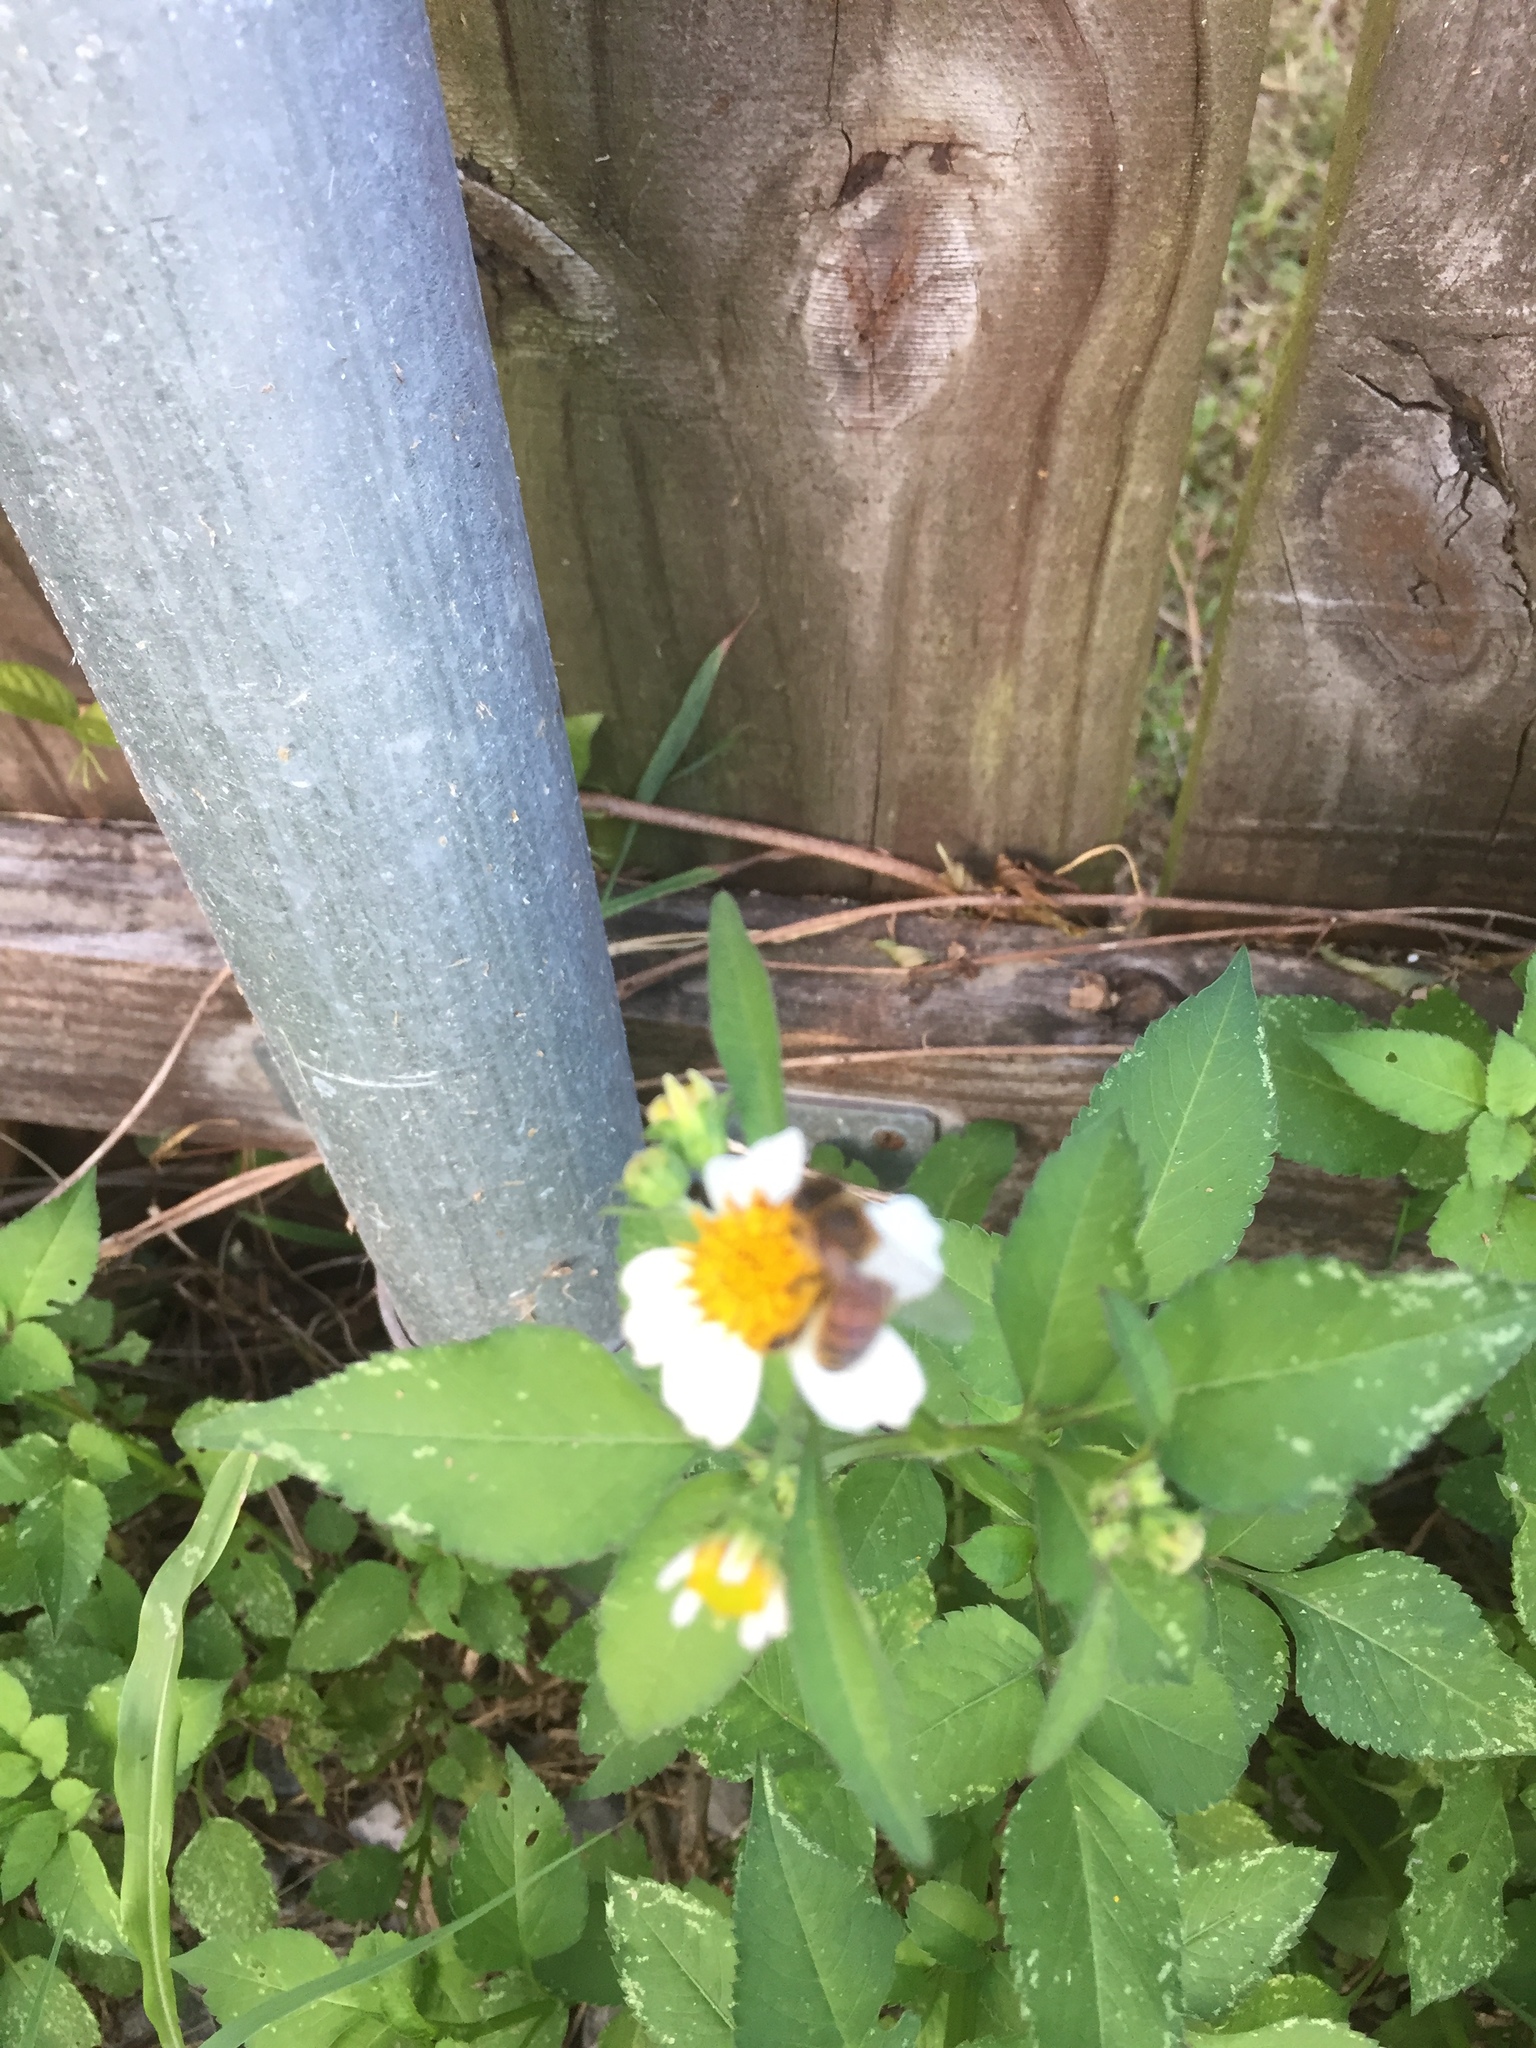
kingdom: Animalia
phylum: Arthropoda
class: Insecta
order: Hymenoptera
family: Apidae
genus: Apis
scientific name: Apis mellifera
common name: Honey bee
